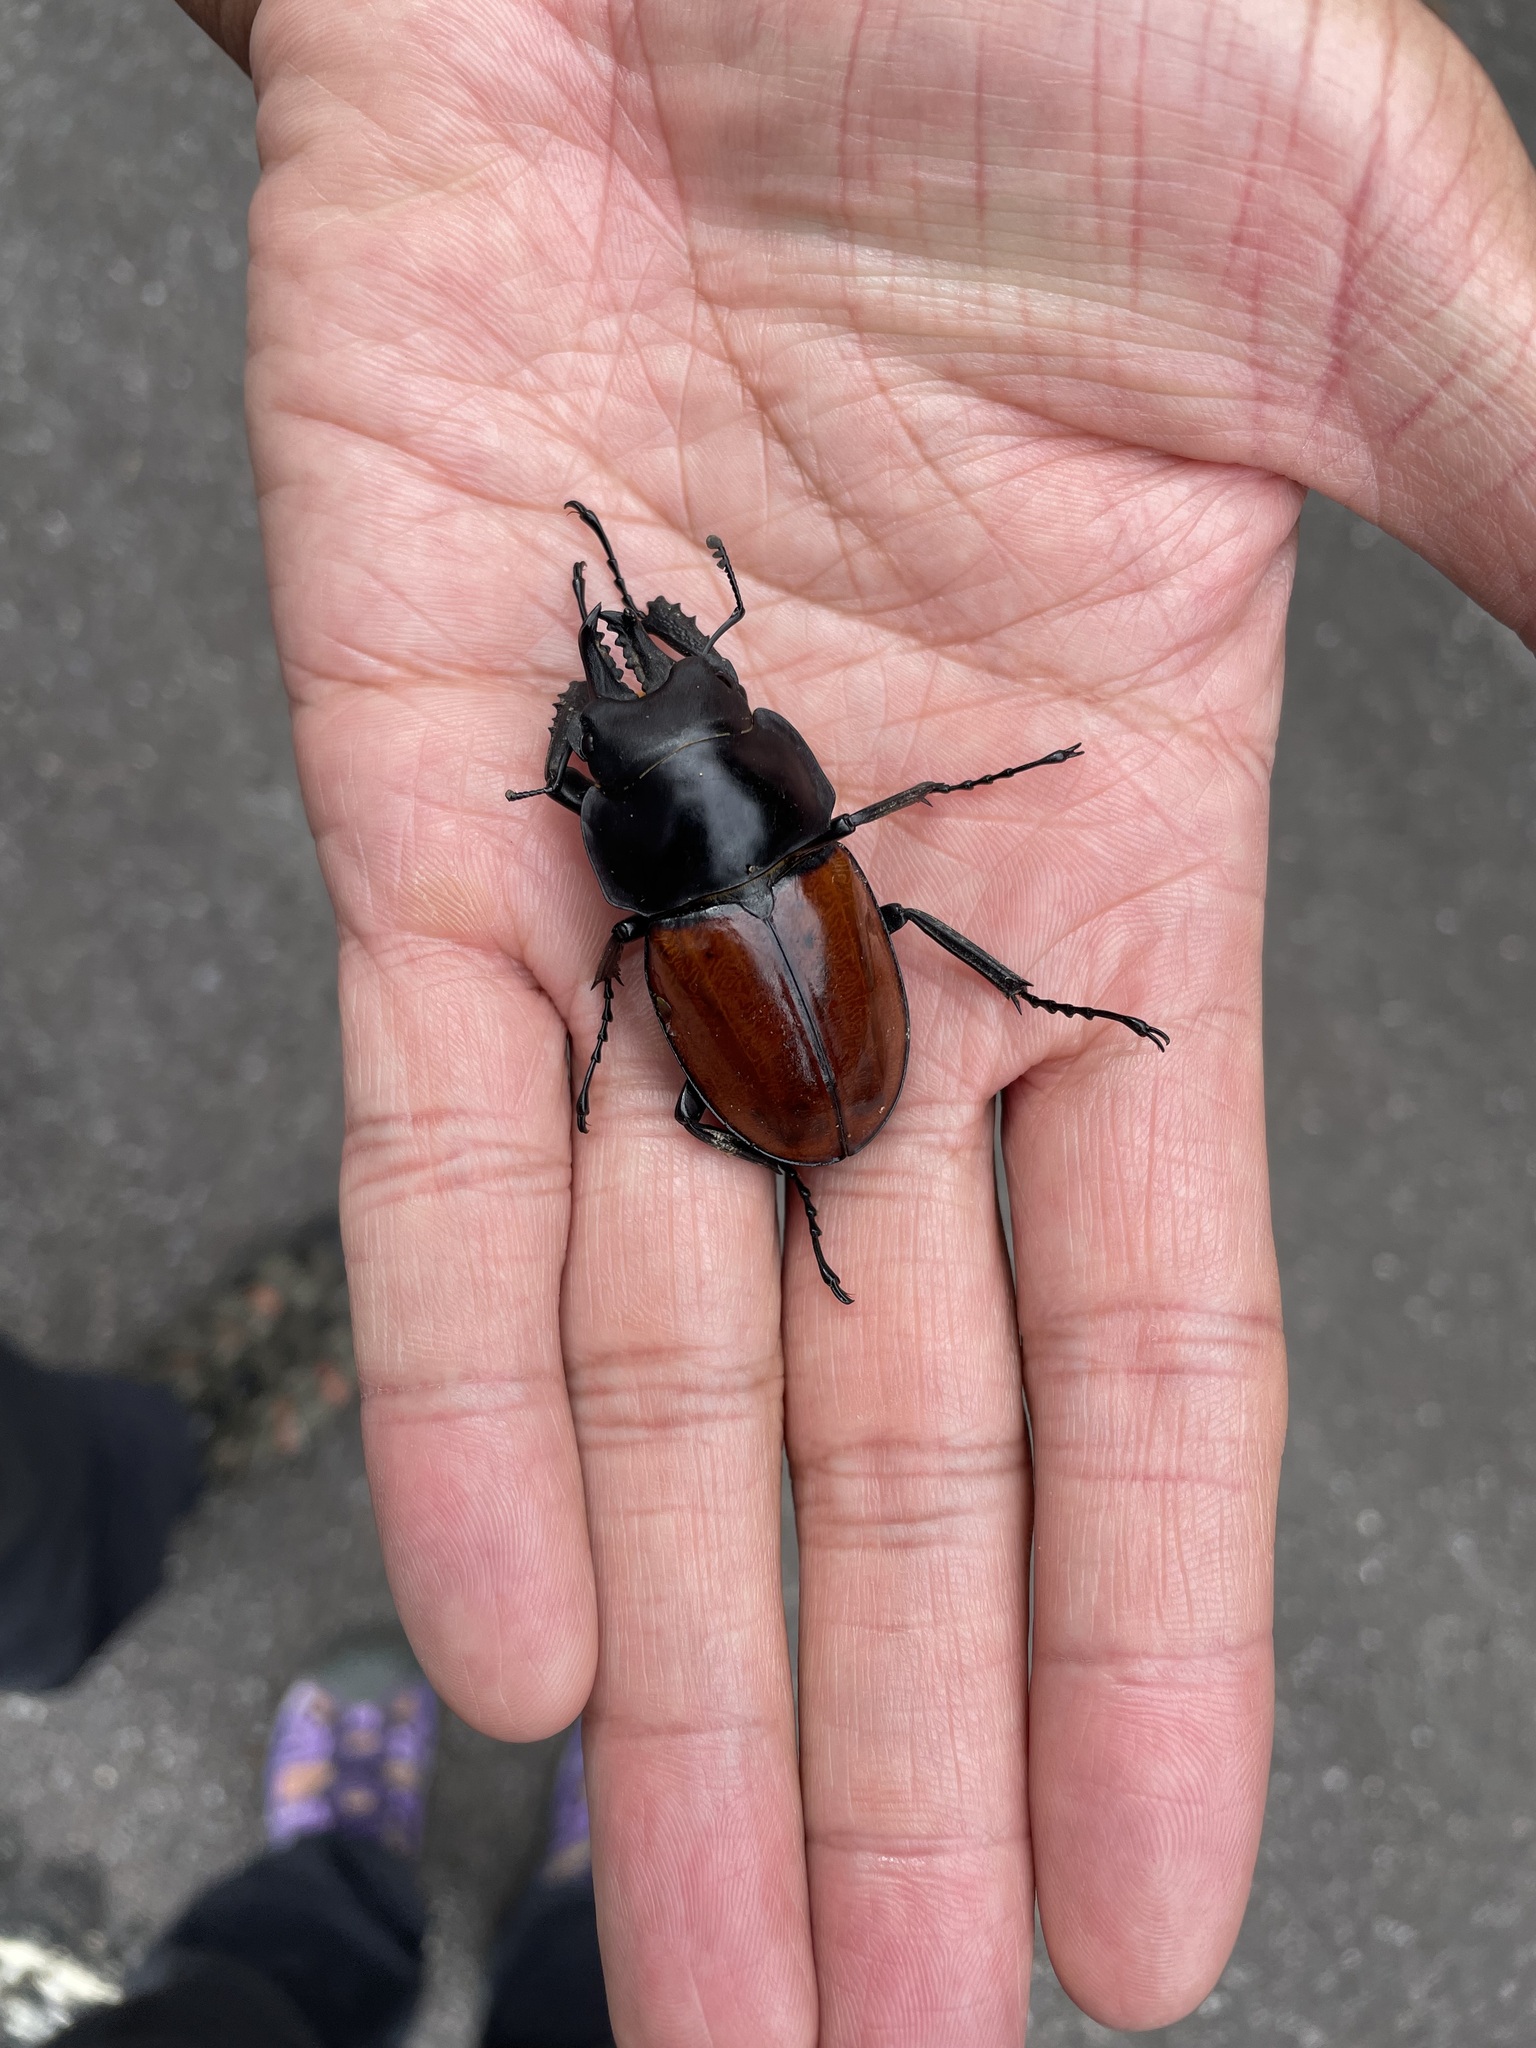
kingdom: Animalia
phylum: Arthropoda
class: Insecta
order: Coleoptera
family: Lucanidae
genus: Neolucanus
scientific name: Neolucanus swinhoei
